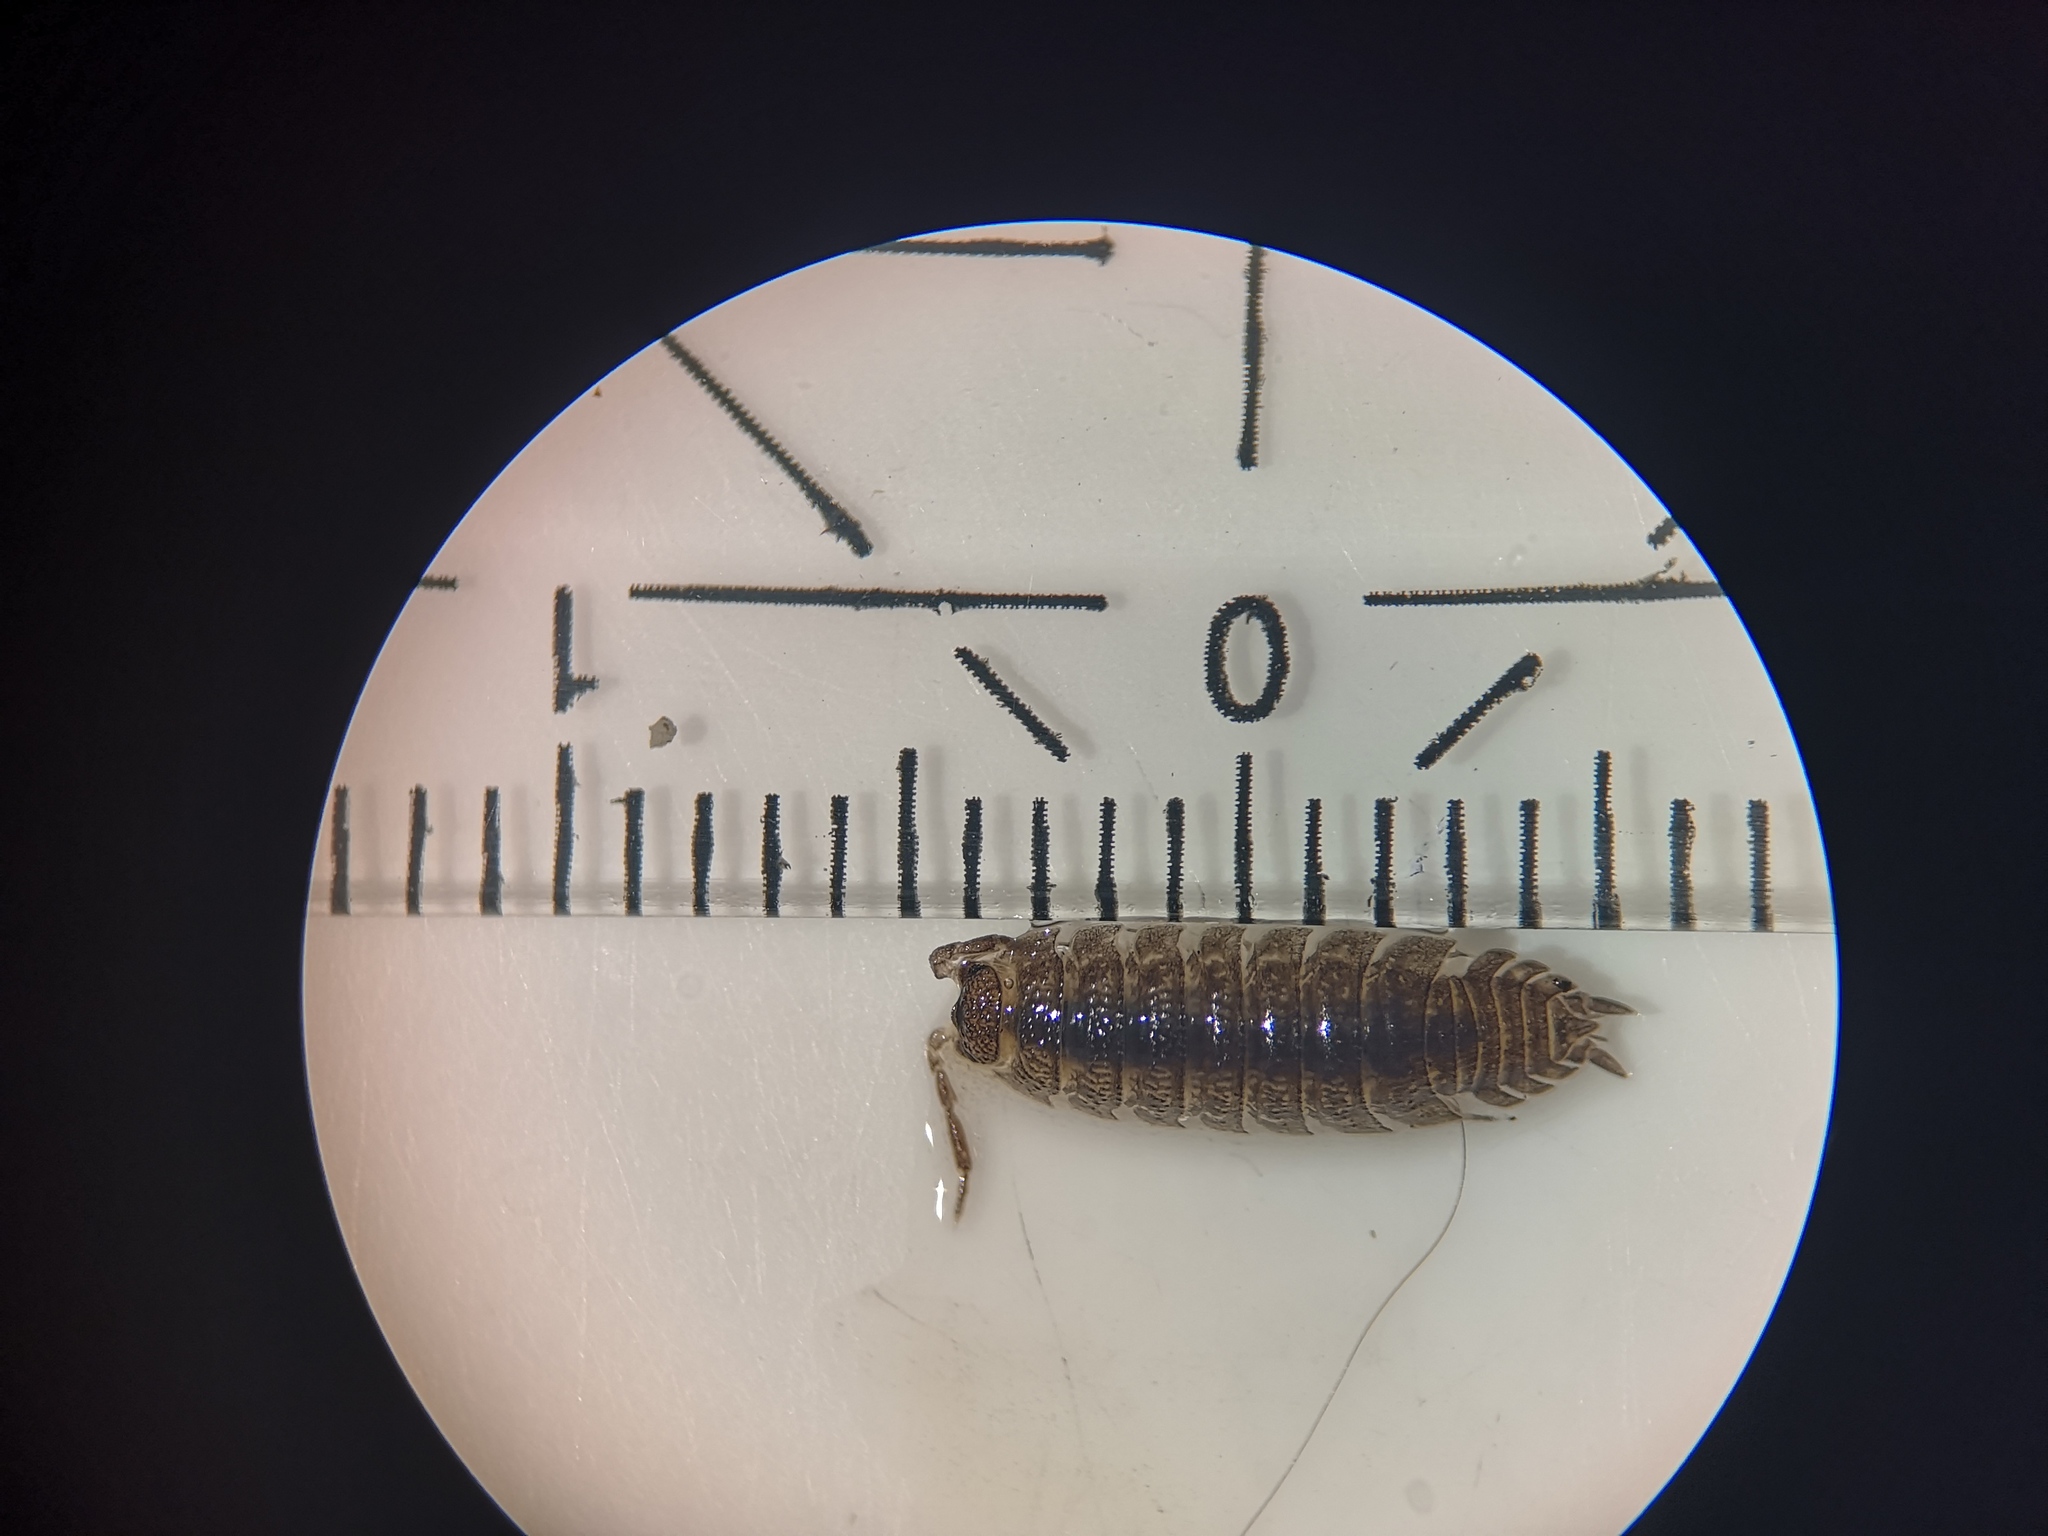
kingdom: Animalia
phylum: Arthropoda
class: Malacostraca
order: Isopoda
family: Porcellionidae
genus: Porcellio
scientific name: Porcellio scaber
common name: Common rough woodlouse
